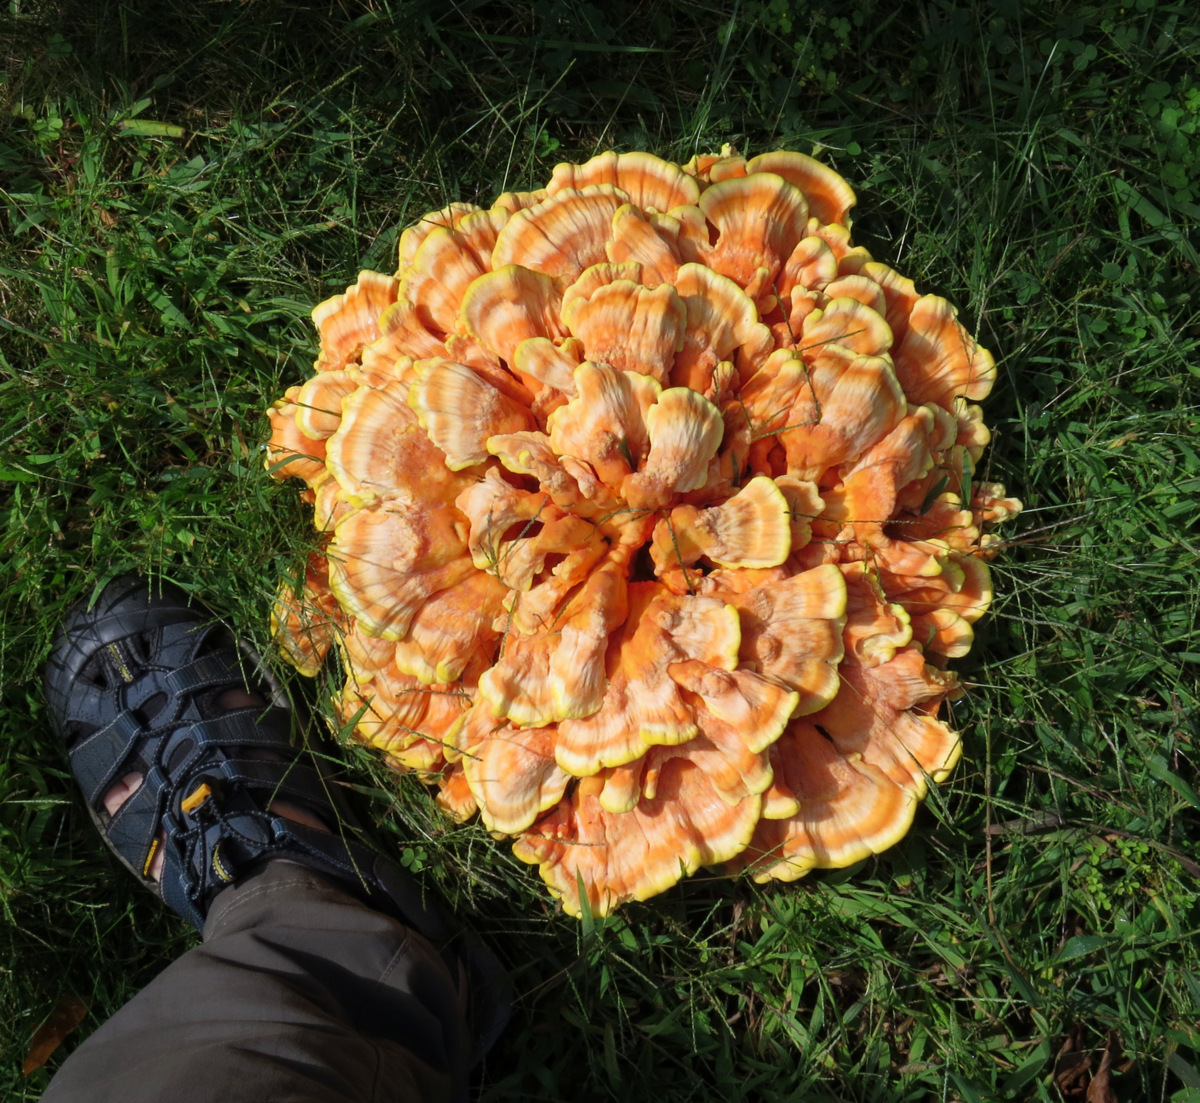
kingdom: Fungi
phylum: Basidiomycota
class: Agaricomycetes
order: Polyporales
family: Laetiporaceae
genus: Laetiporus
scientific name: Laetiporus sulphureus
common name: Chicken of the woods
